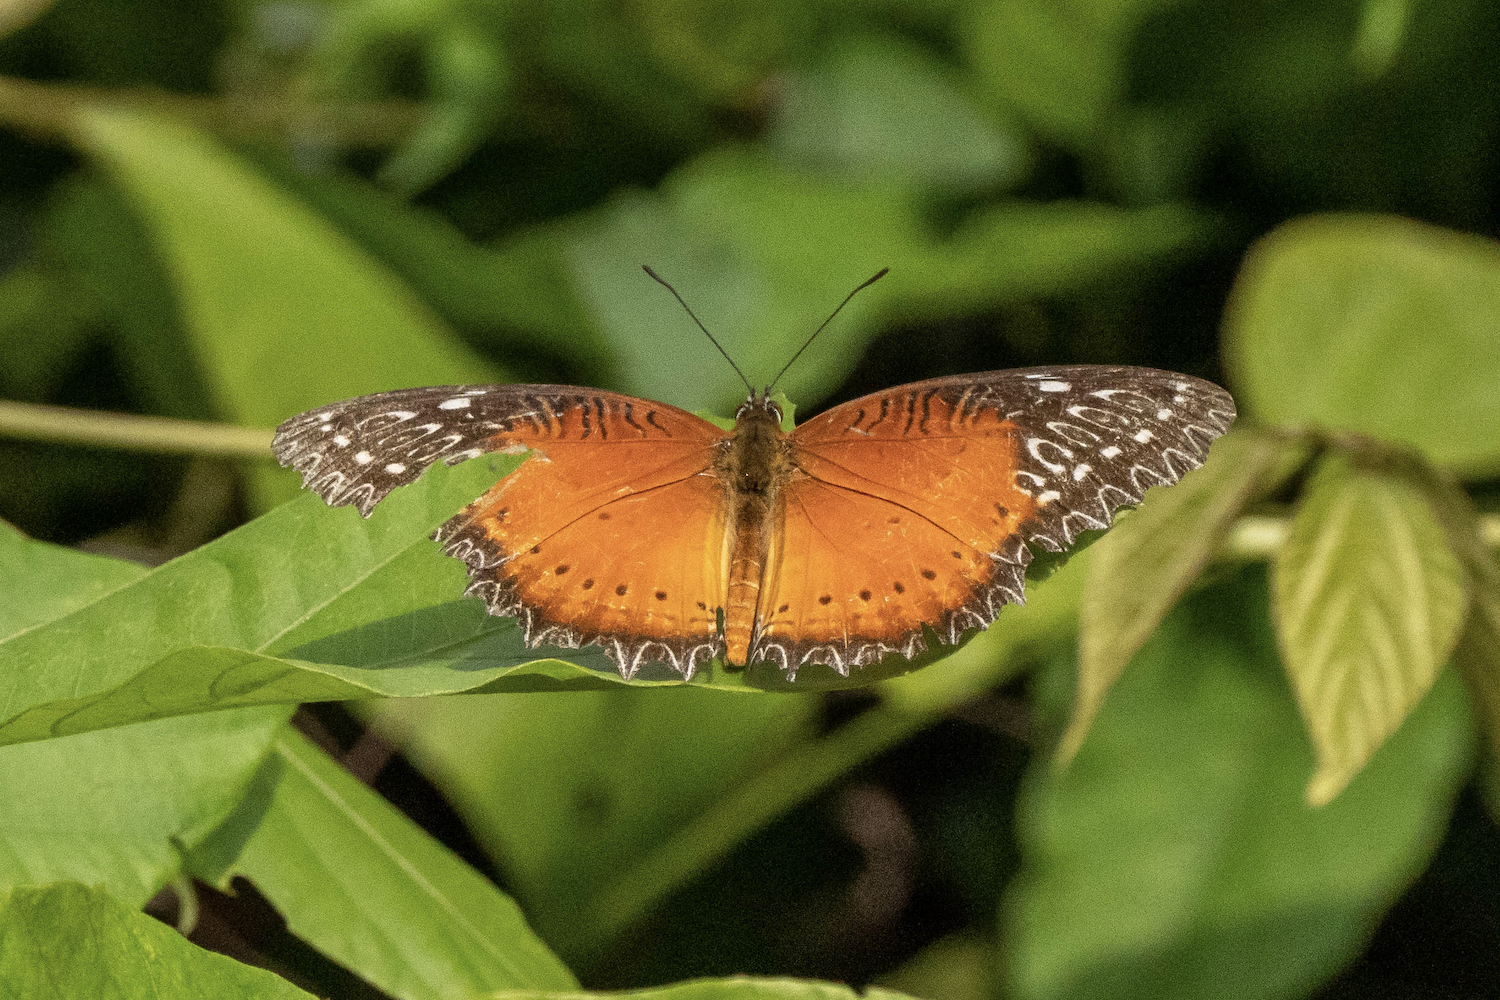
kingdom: Animalia
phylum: Arthropoda
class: Insecta
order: Lepidoptera
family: Nymphalidae
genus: Cethosia
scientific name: Cethosia biblis
